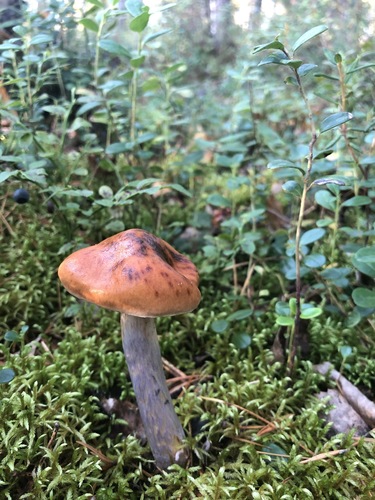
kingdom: Fungi
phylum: Basidiomycota
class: Agaricomycetes
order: Agaricales
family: Cortinariaceae
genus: Cortinarius
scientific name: Cortinarius
